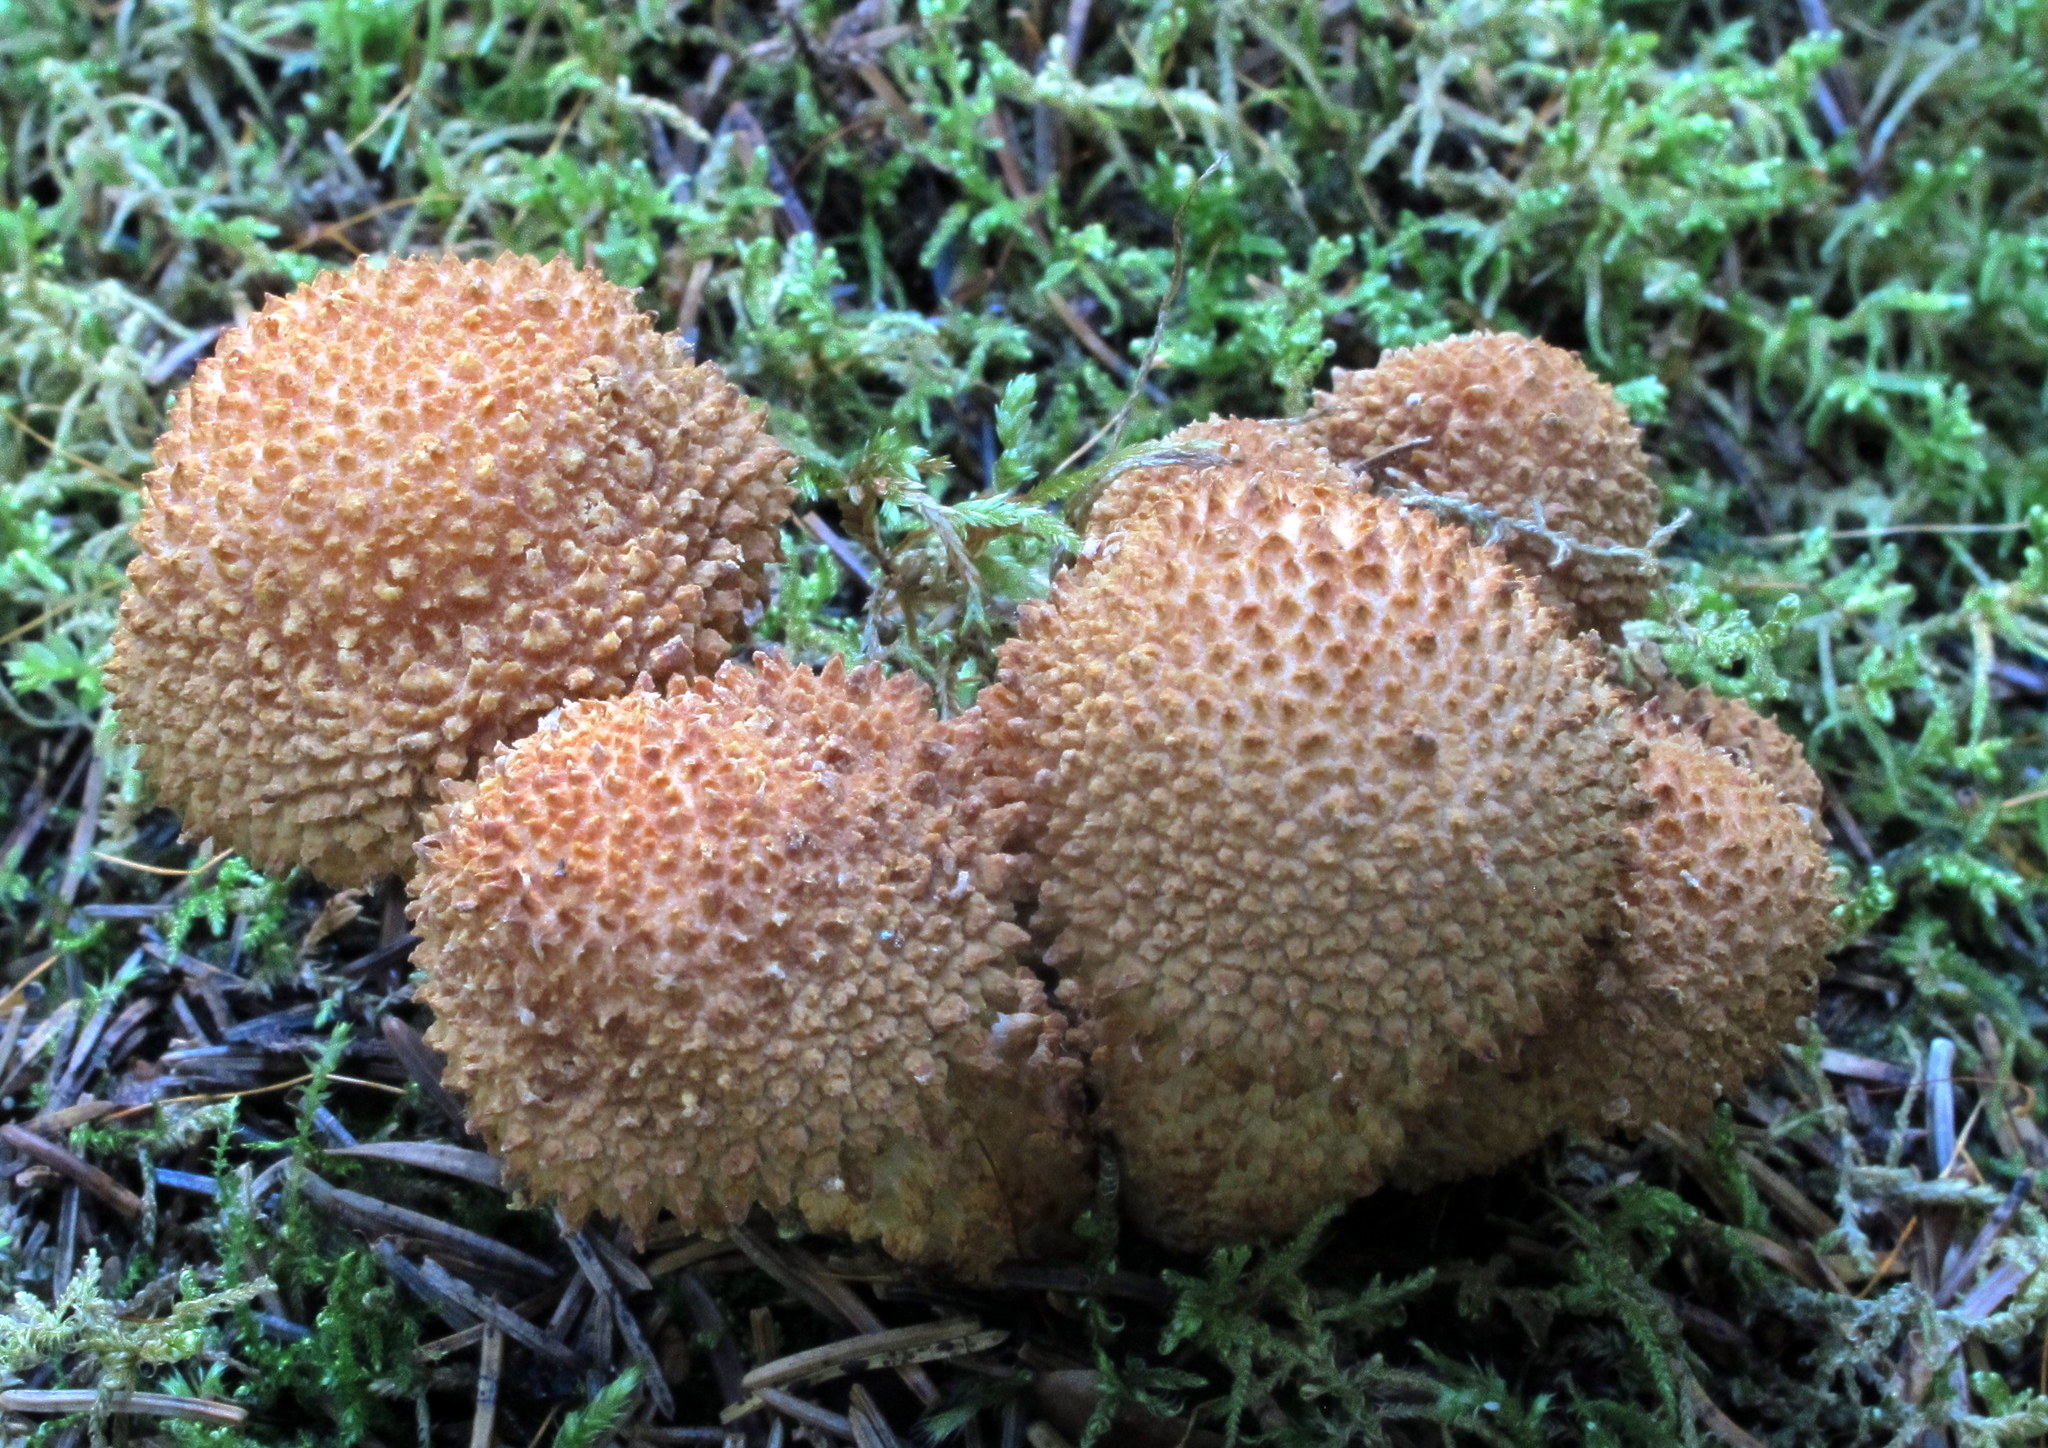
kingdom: Fungi
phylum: Basidiomycota
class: Agaricomycetes
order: Agaricales
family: Strophariaceae
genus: Pholiota
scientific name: Pholiota squarrosoides
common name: Sharp-scaly pholiota
